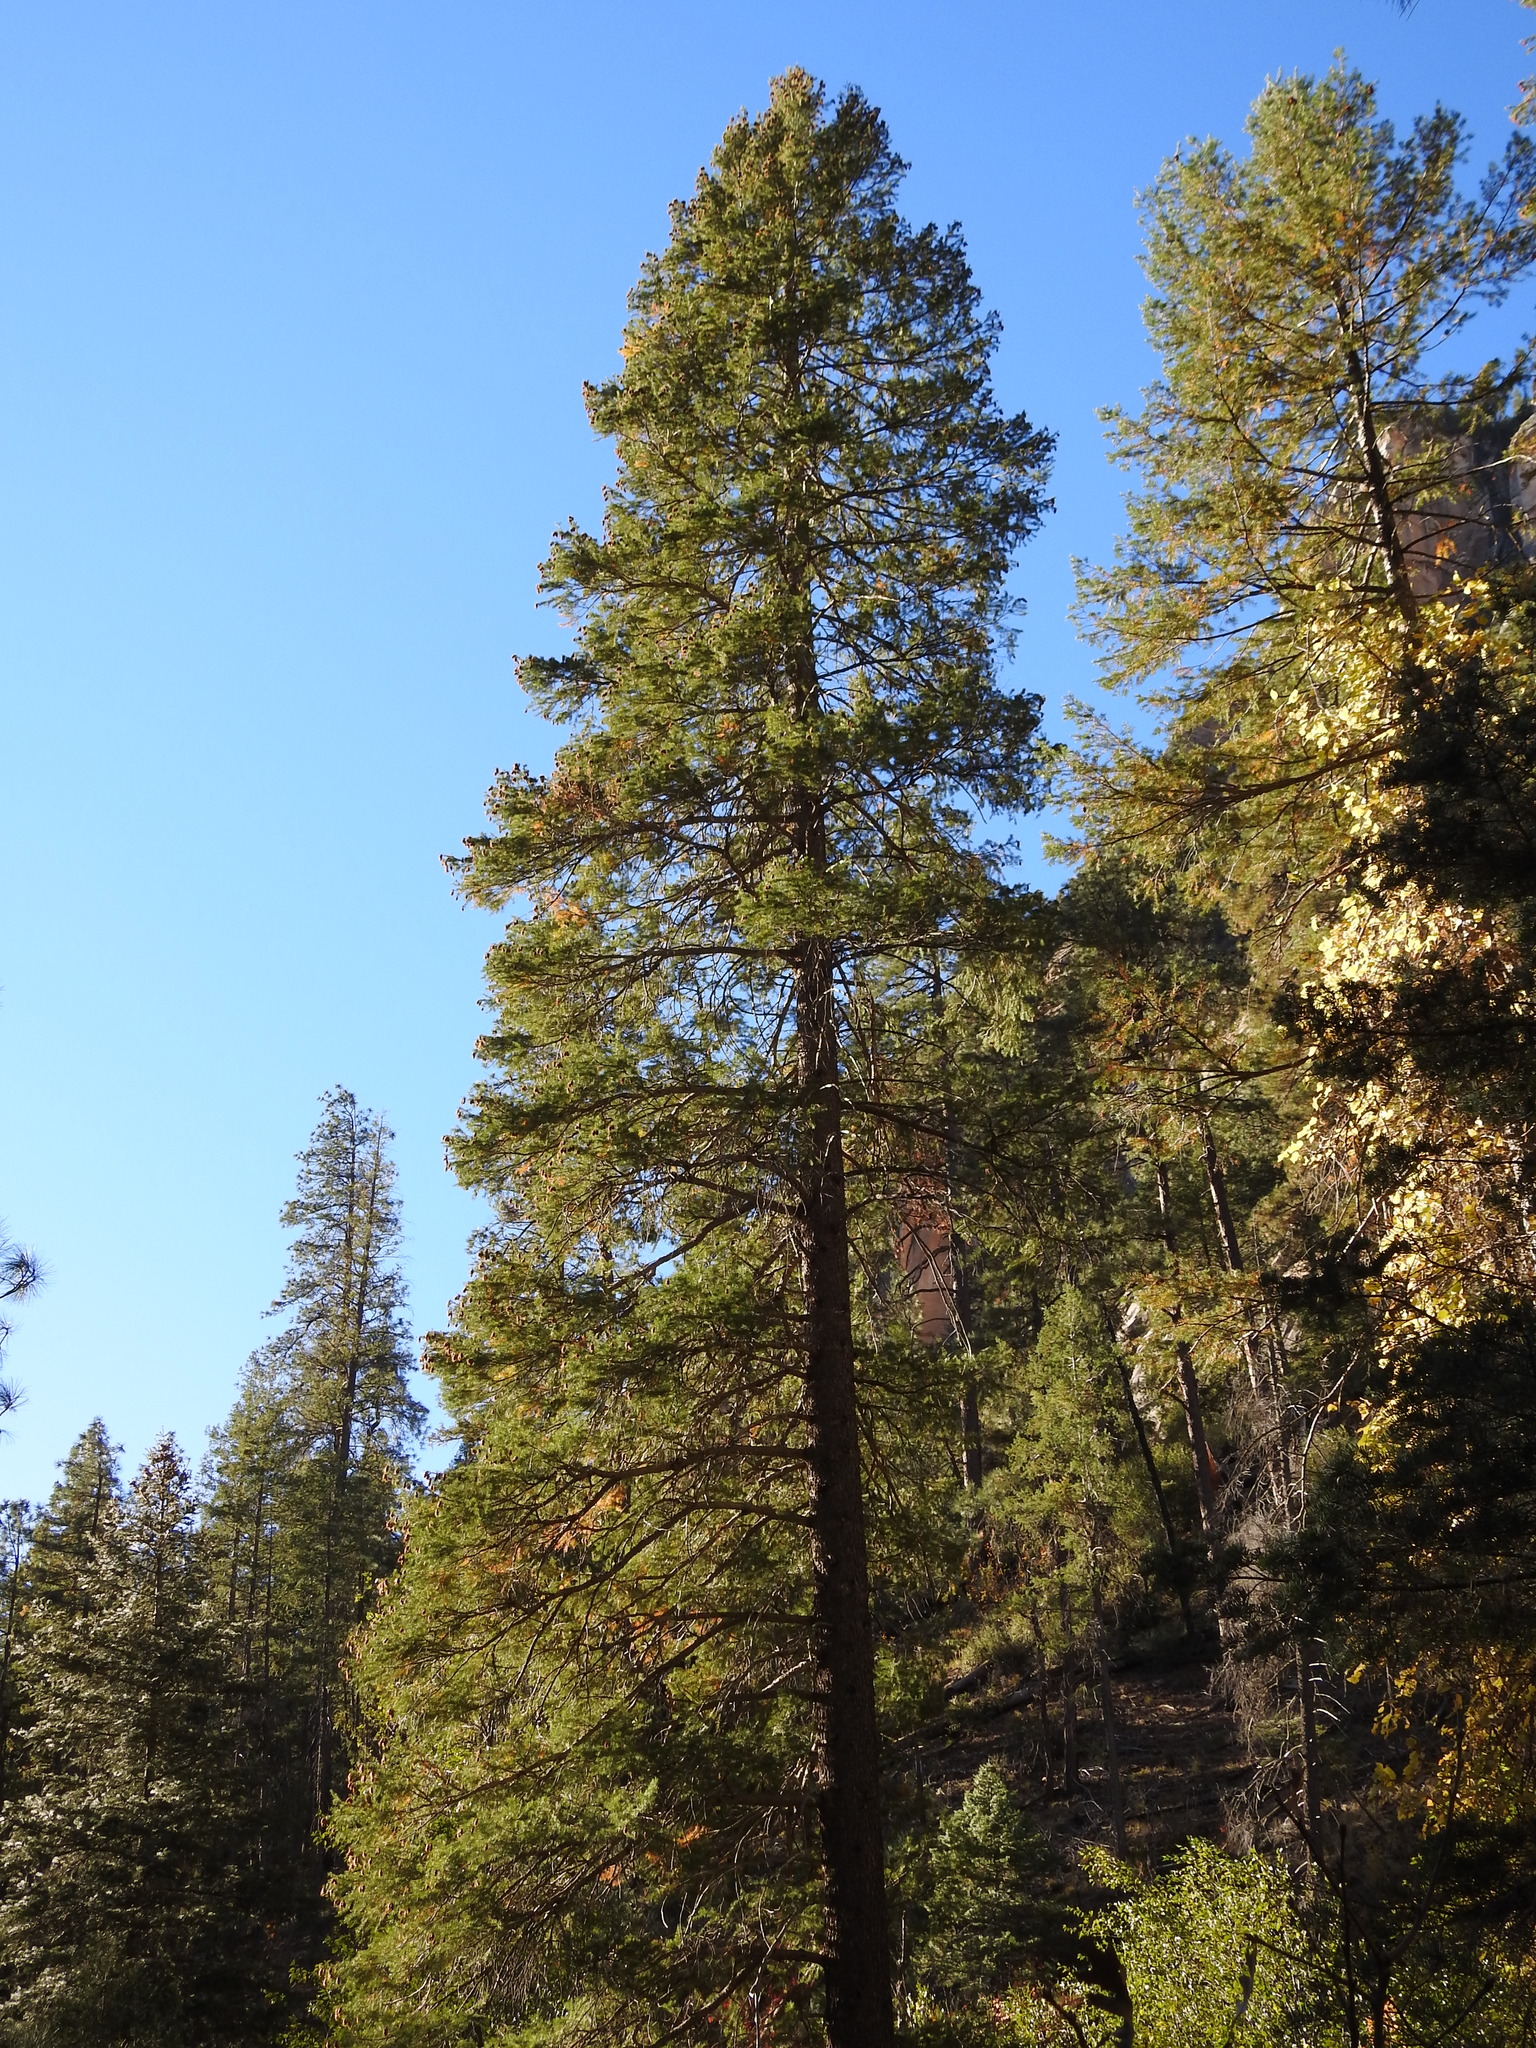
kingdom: Plantae
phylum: Tracheophyta
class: Pinopsida
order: Pinales
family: Pinaceae
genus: Pseudotsuga
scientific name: Pseudotsuga menziesii
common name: Douglas fir
